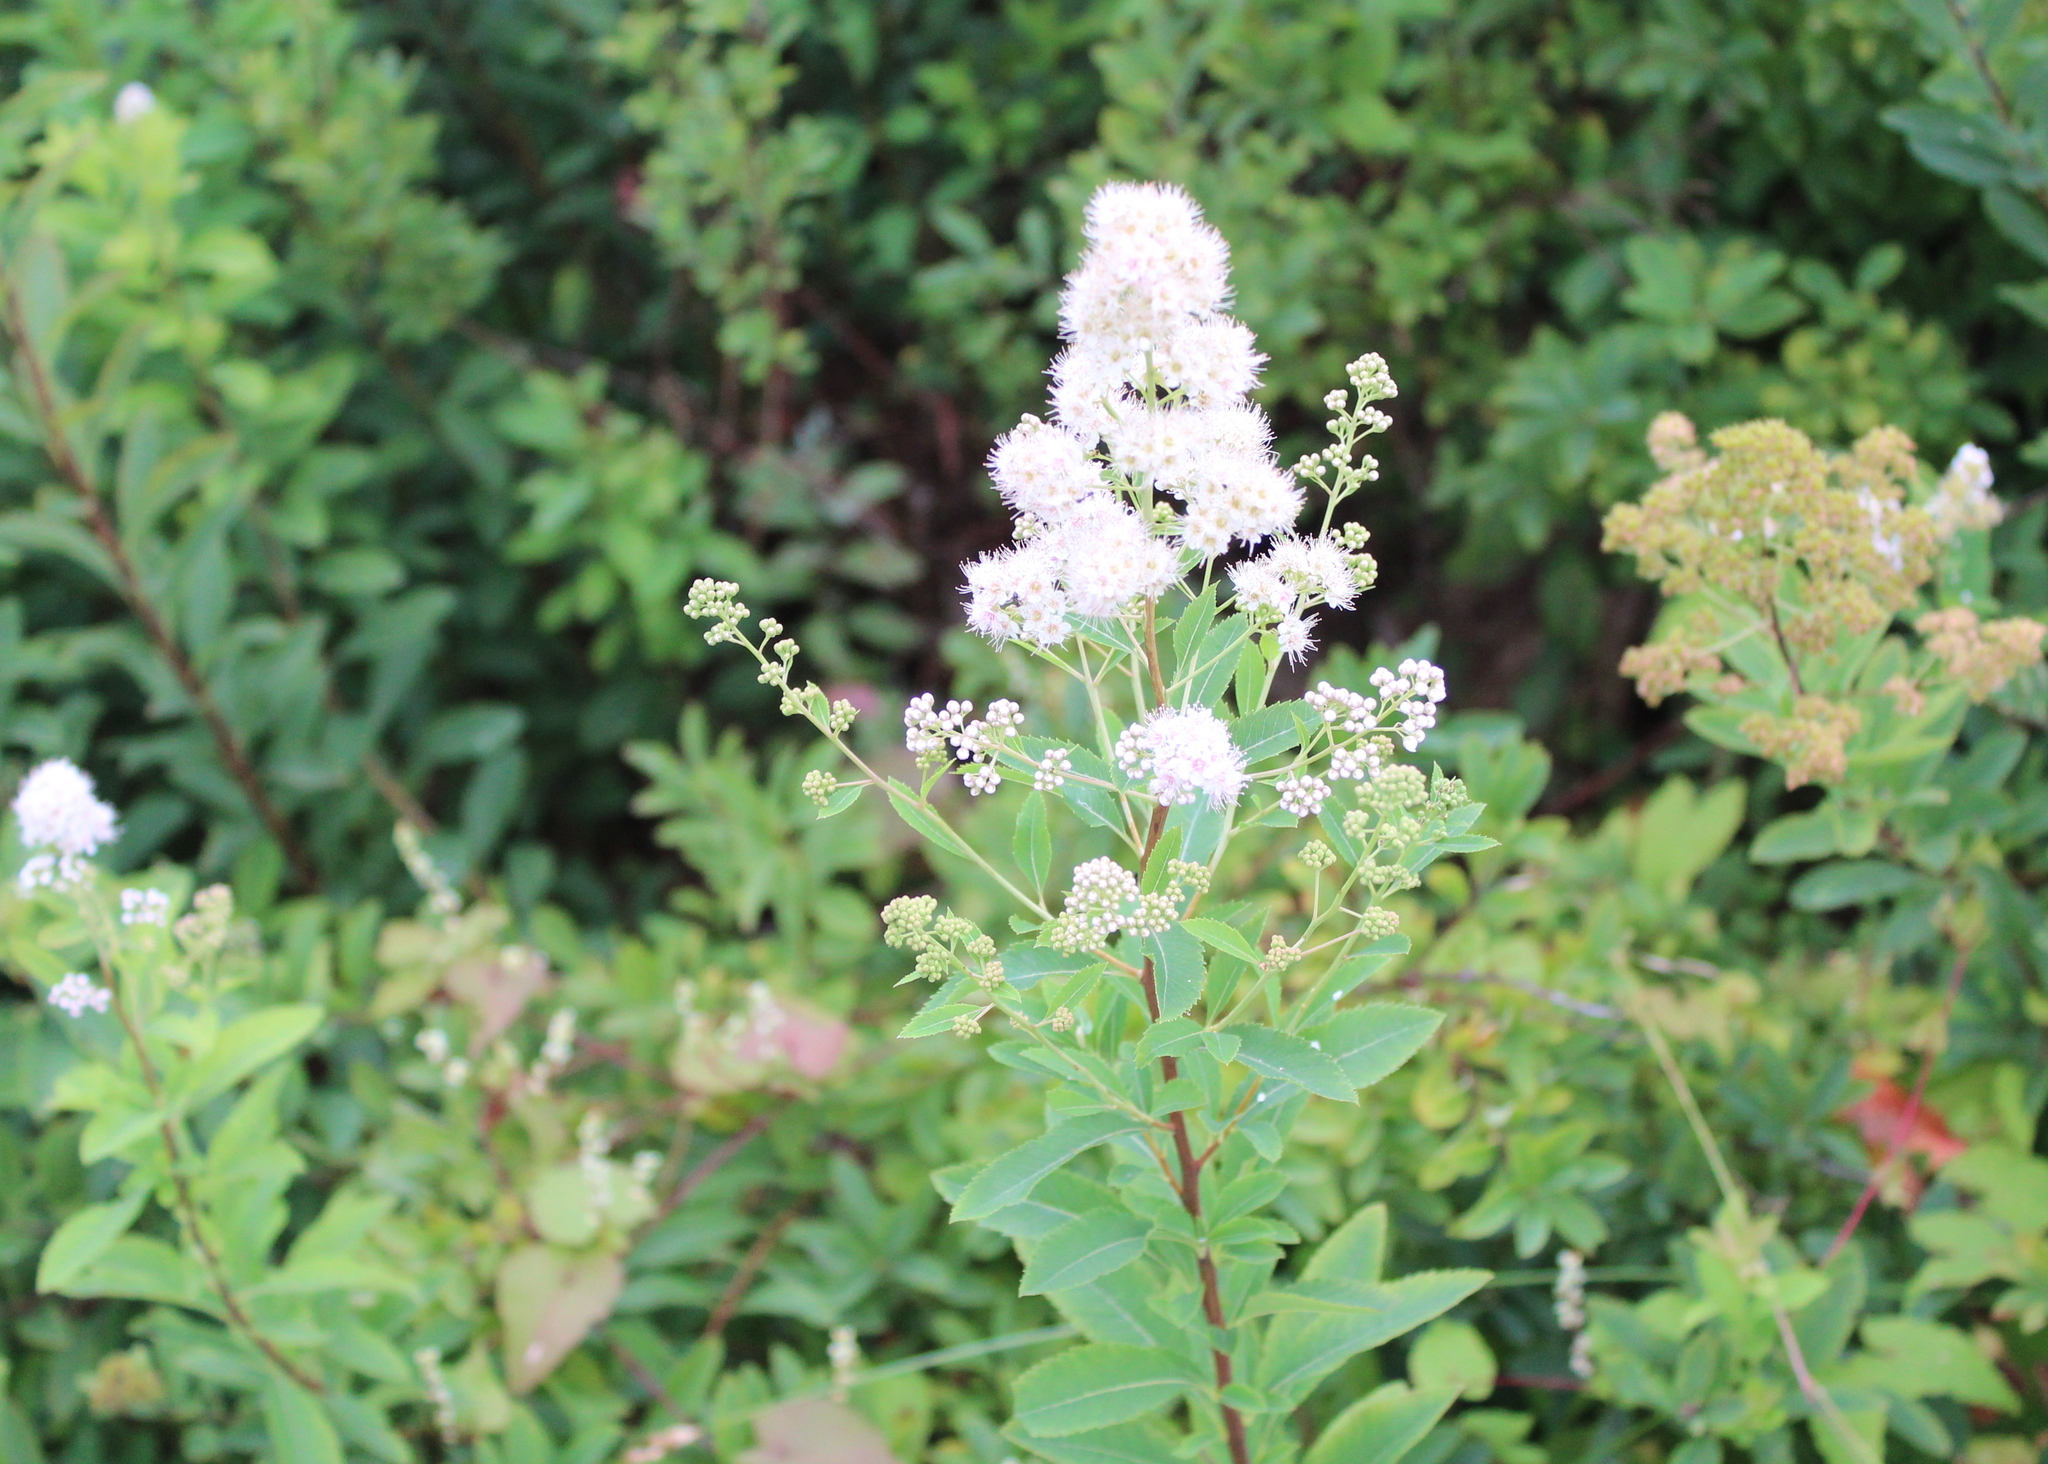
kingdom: Plantae
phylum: Tracheophyta
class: Magnoliopsida
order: Rosales
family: Rosaceae
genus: Spiraea
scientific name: Spiraea alba
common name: Pale bridewort
